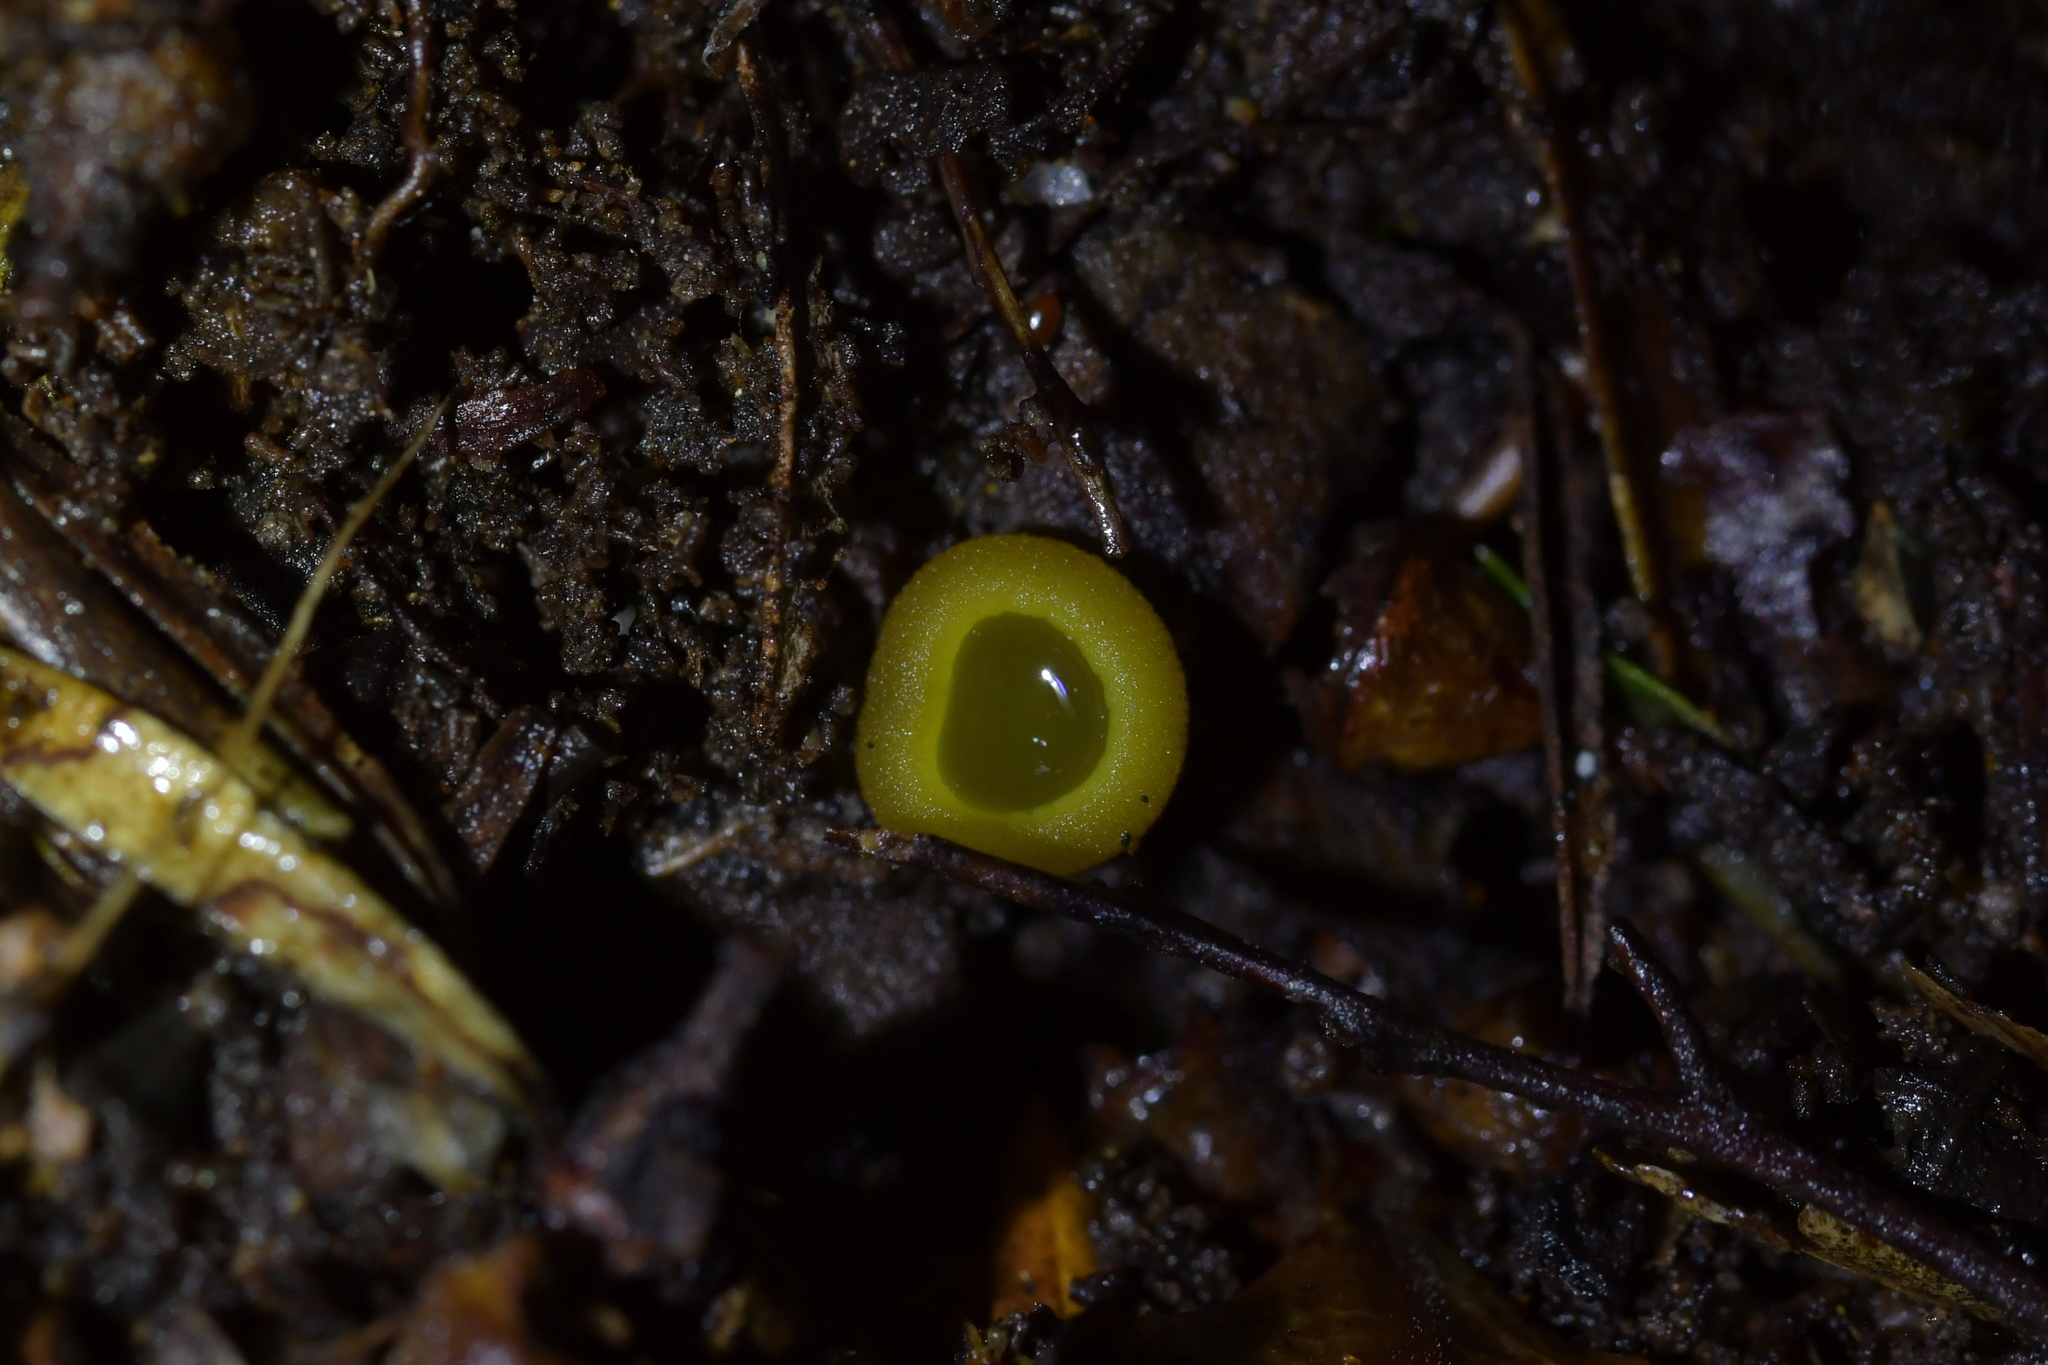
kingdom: Fungi
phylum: Ascomycota
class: Pezizomycetes
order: Pezizales
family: Pyronemataceae
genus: Aleurina
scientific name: Aleurina ferruginea
